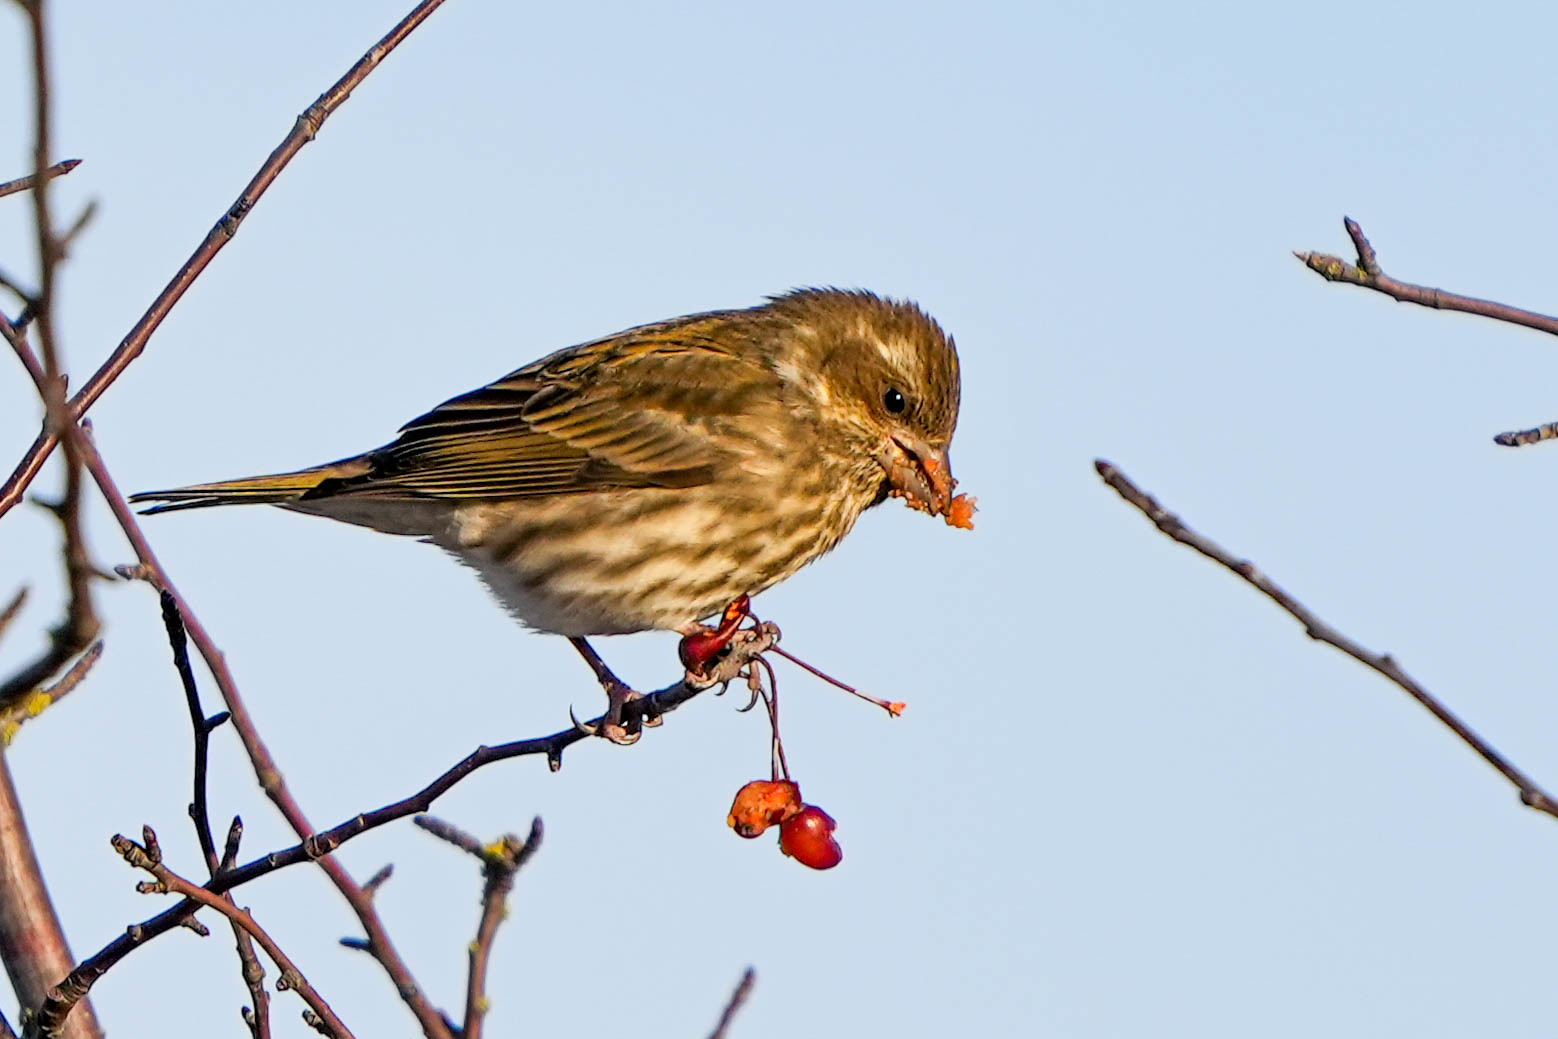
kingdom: Animalia
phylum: Chordata
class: Aves
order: Passeriformes
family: Fringillidae
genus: Haemorhous
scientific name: Haemorhous purpureus
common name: Purple finch
